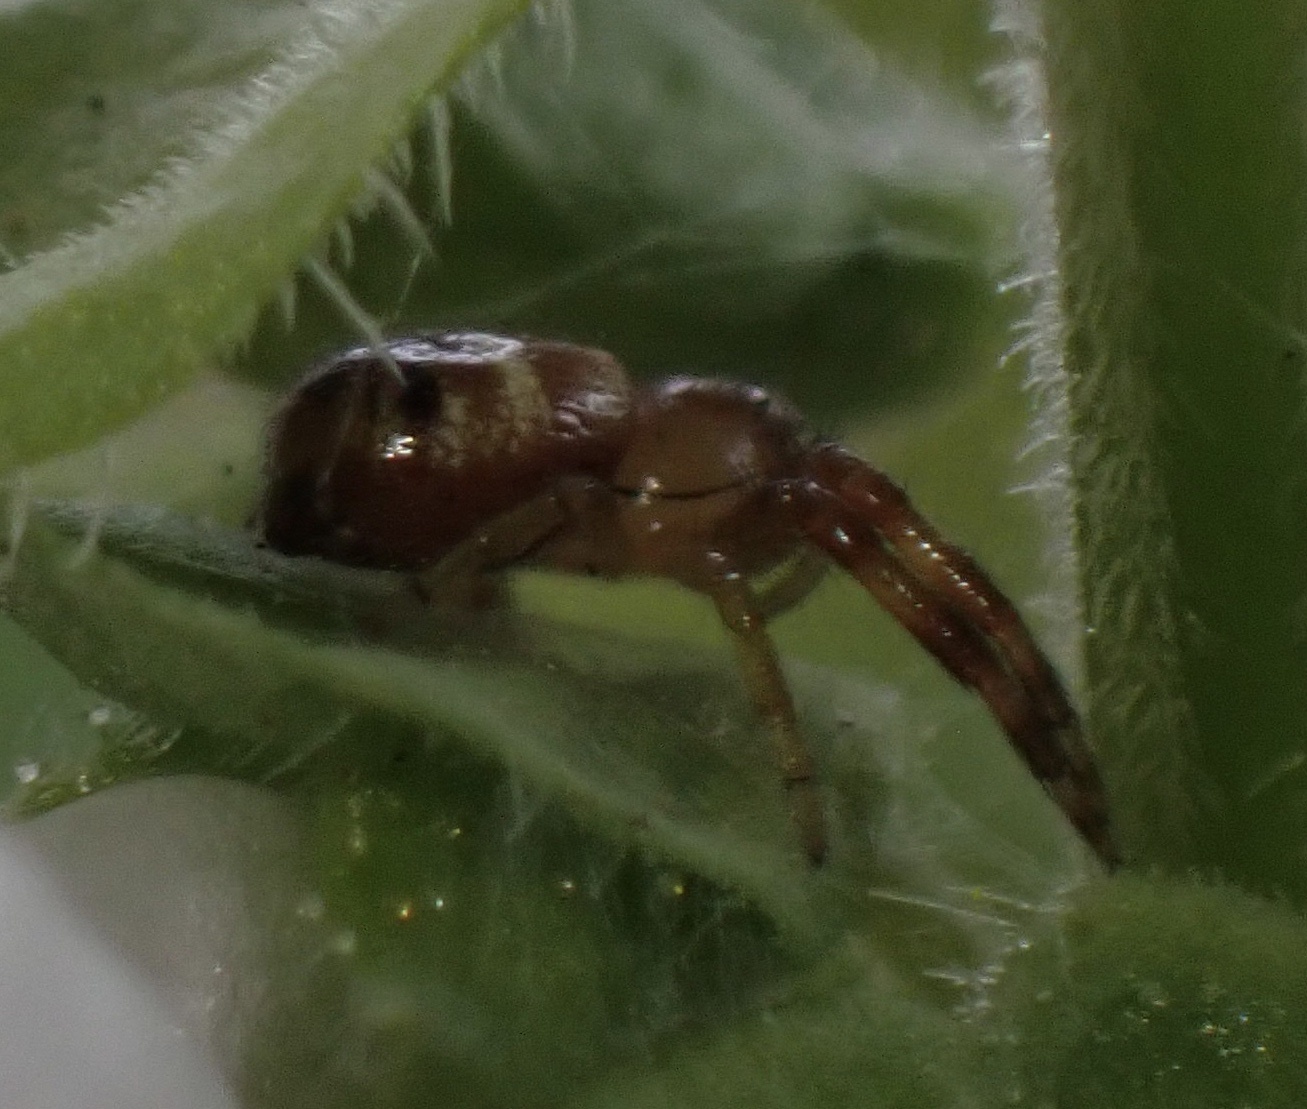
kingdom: Animalia
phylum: Arthropoda
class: Arachnida
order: Araneae
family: Thomisidae
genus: Synema
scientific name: Synema globosum
